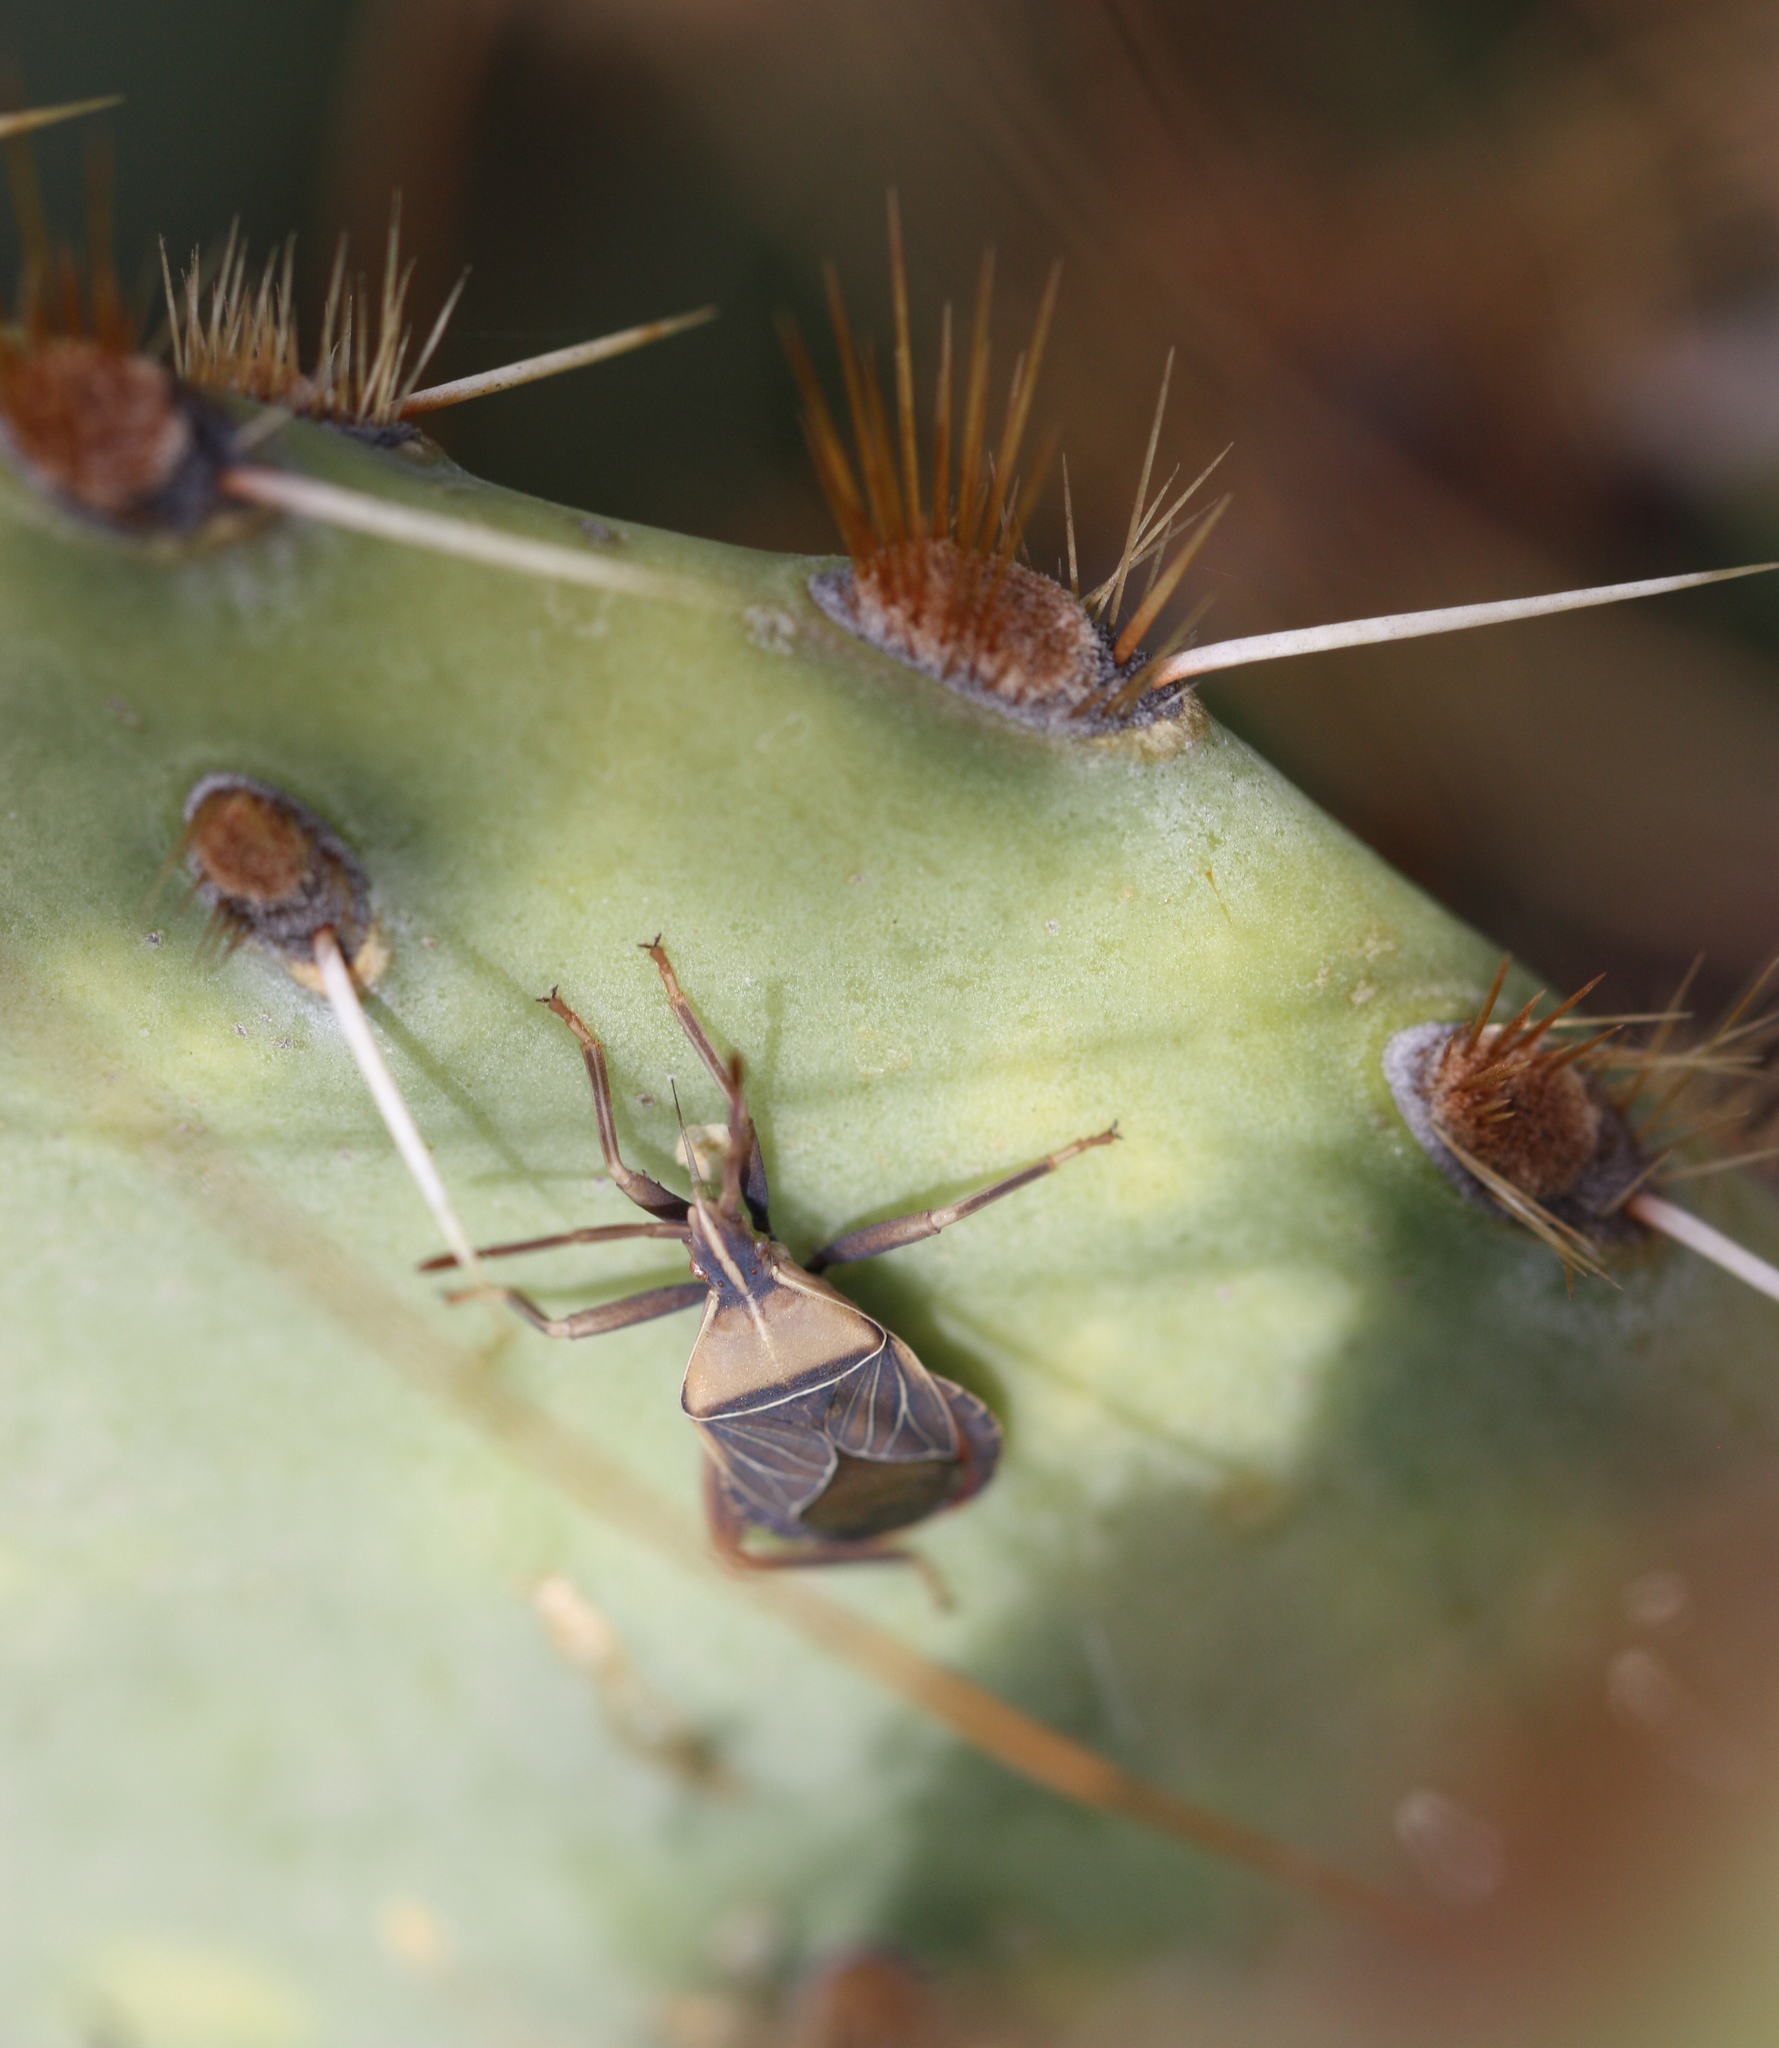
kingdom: Animalia
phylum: Arthropoda
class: Insecta
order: Hemiptera
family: Coreidae
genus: Chelinidea
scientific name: Chelinidea vittiger
